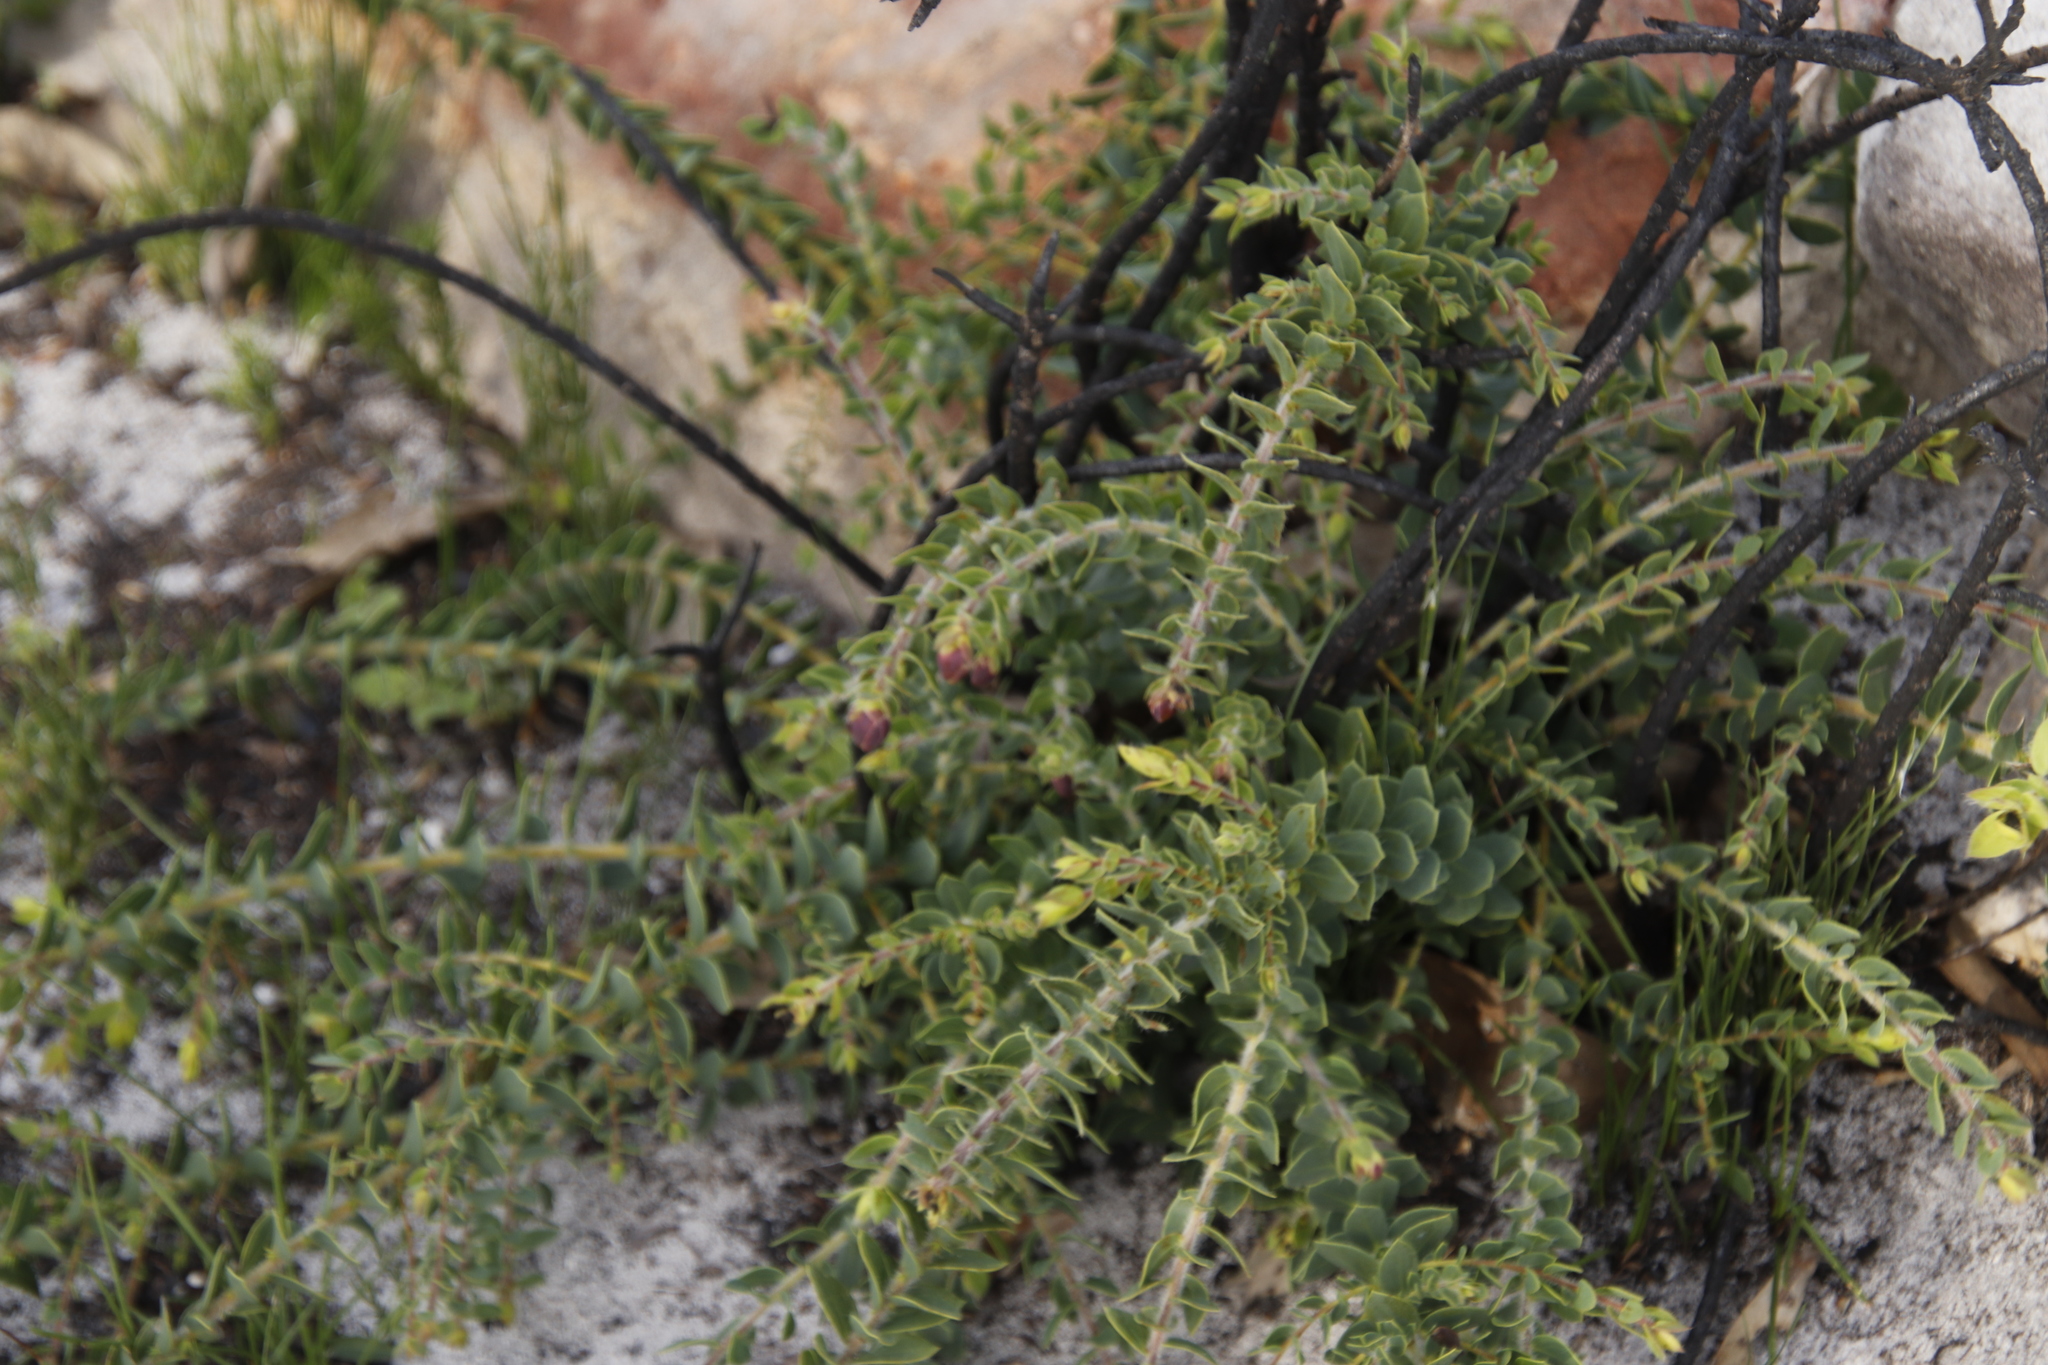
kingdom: Plantae
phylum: Tracheophyta
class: Magnoliopsida
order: Fabales
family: Fabaceae
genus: Liparia
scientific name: Liparia parva
